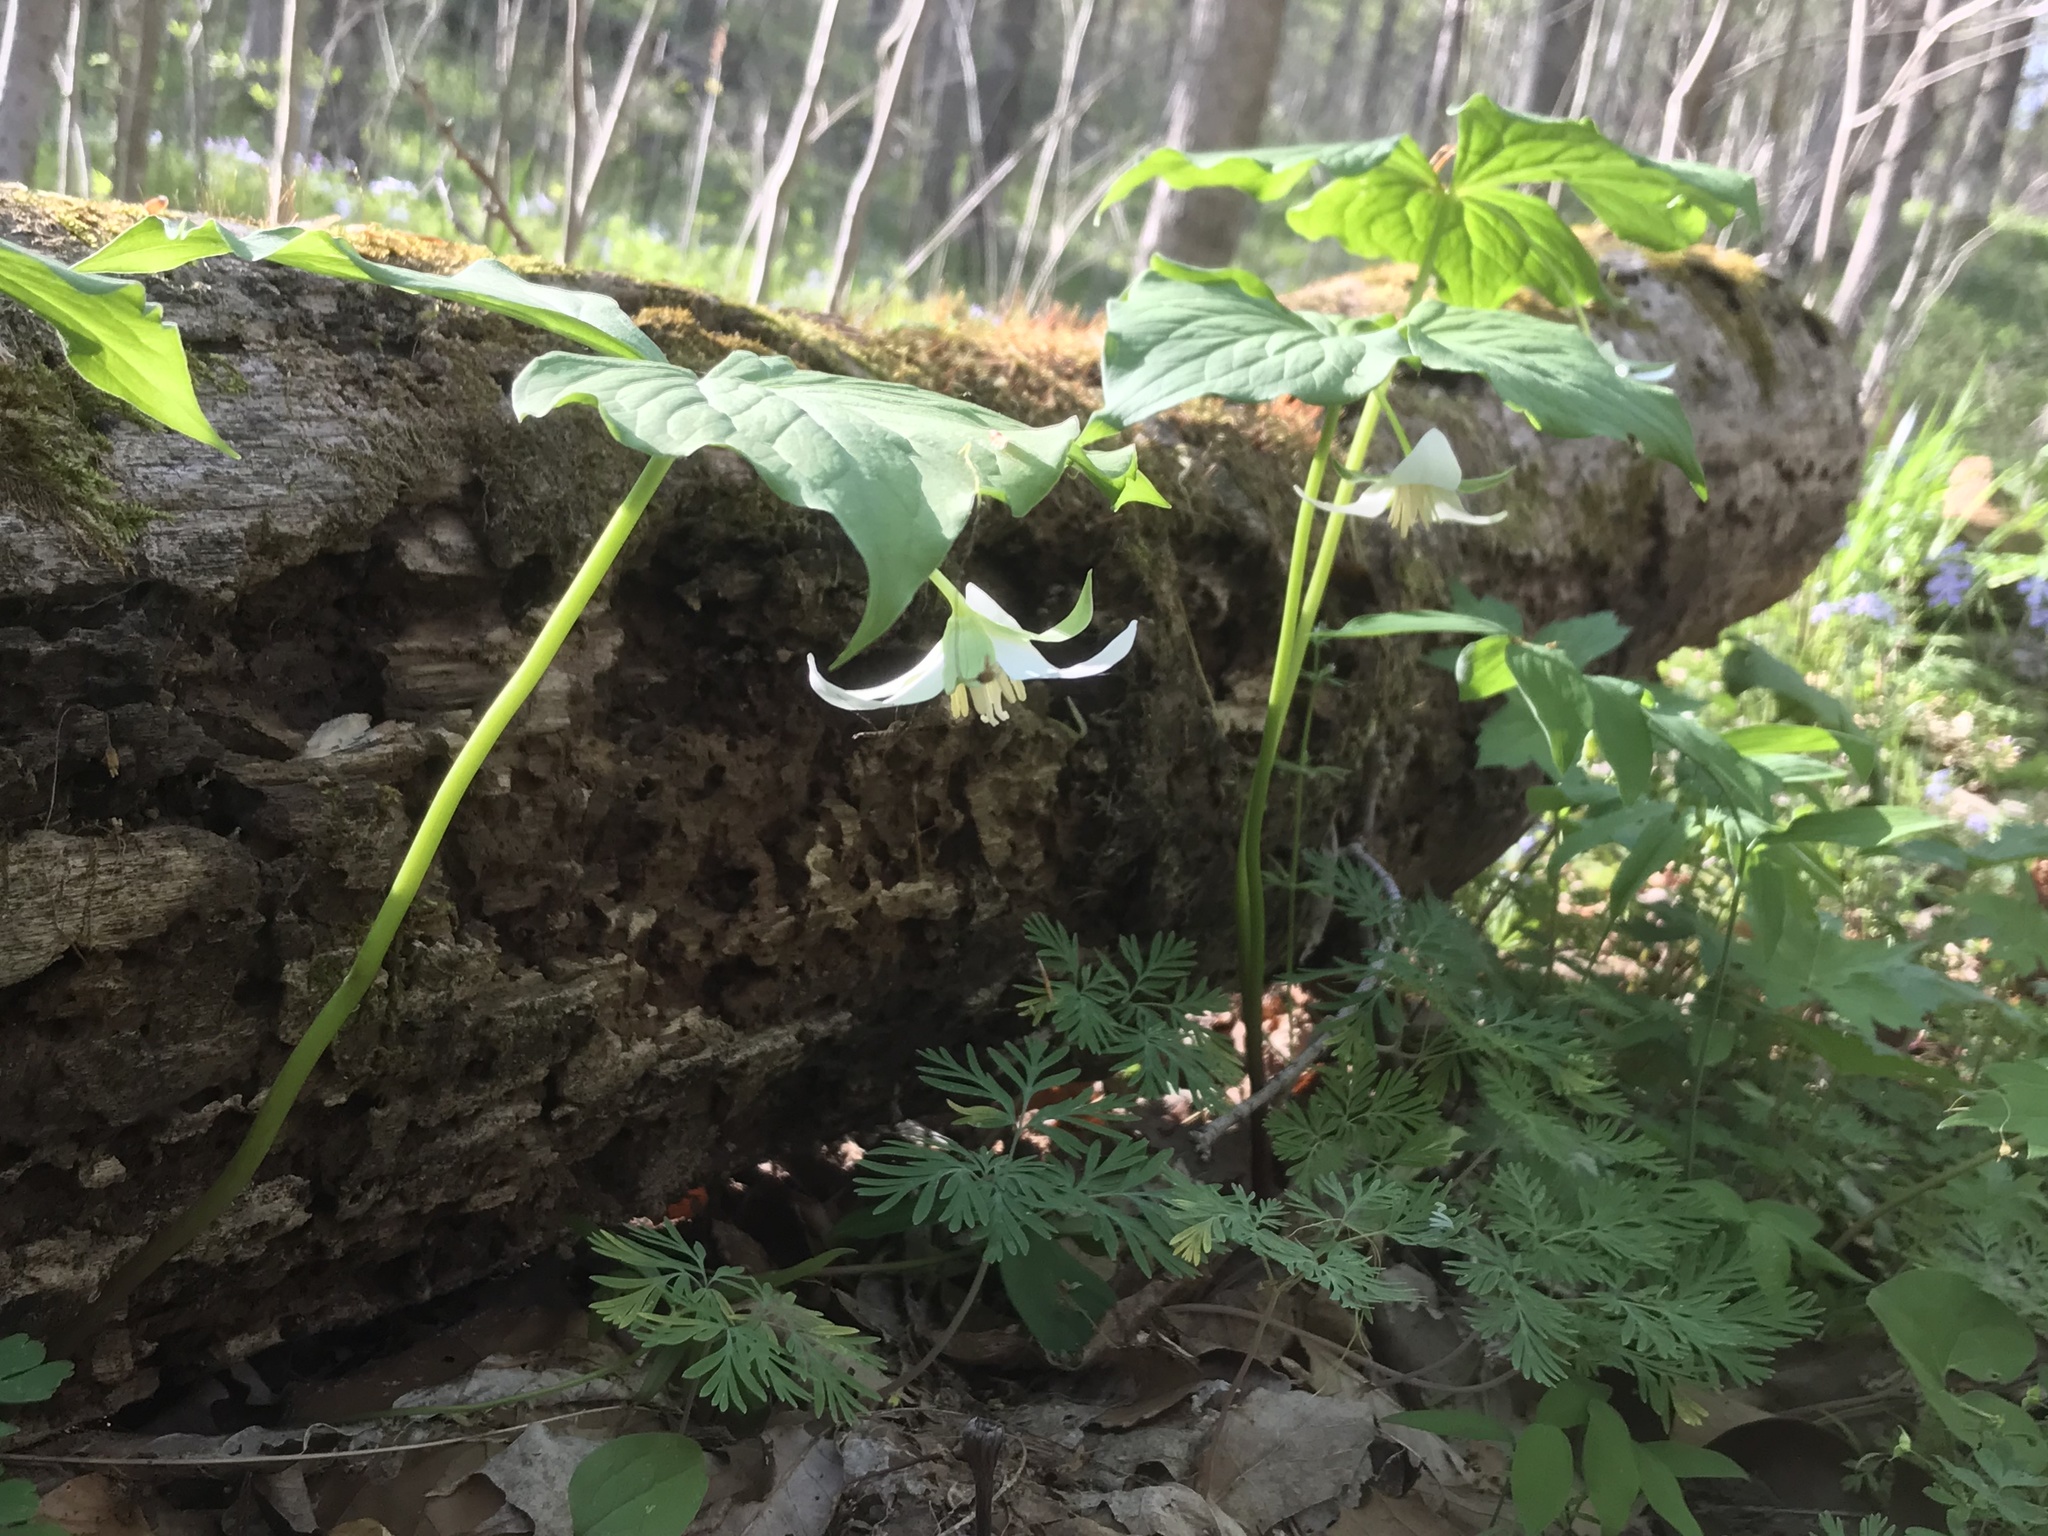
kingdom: Plantae
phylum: Tracheophyta
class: Liliopsida
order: Liliales
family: Melanthiaceae
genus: Trillium
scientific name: Trillium flexipes
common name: Drooping trillium
